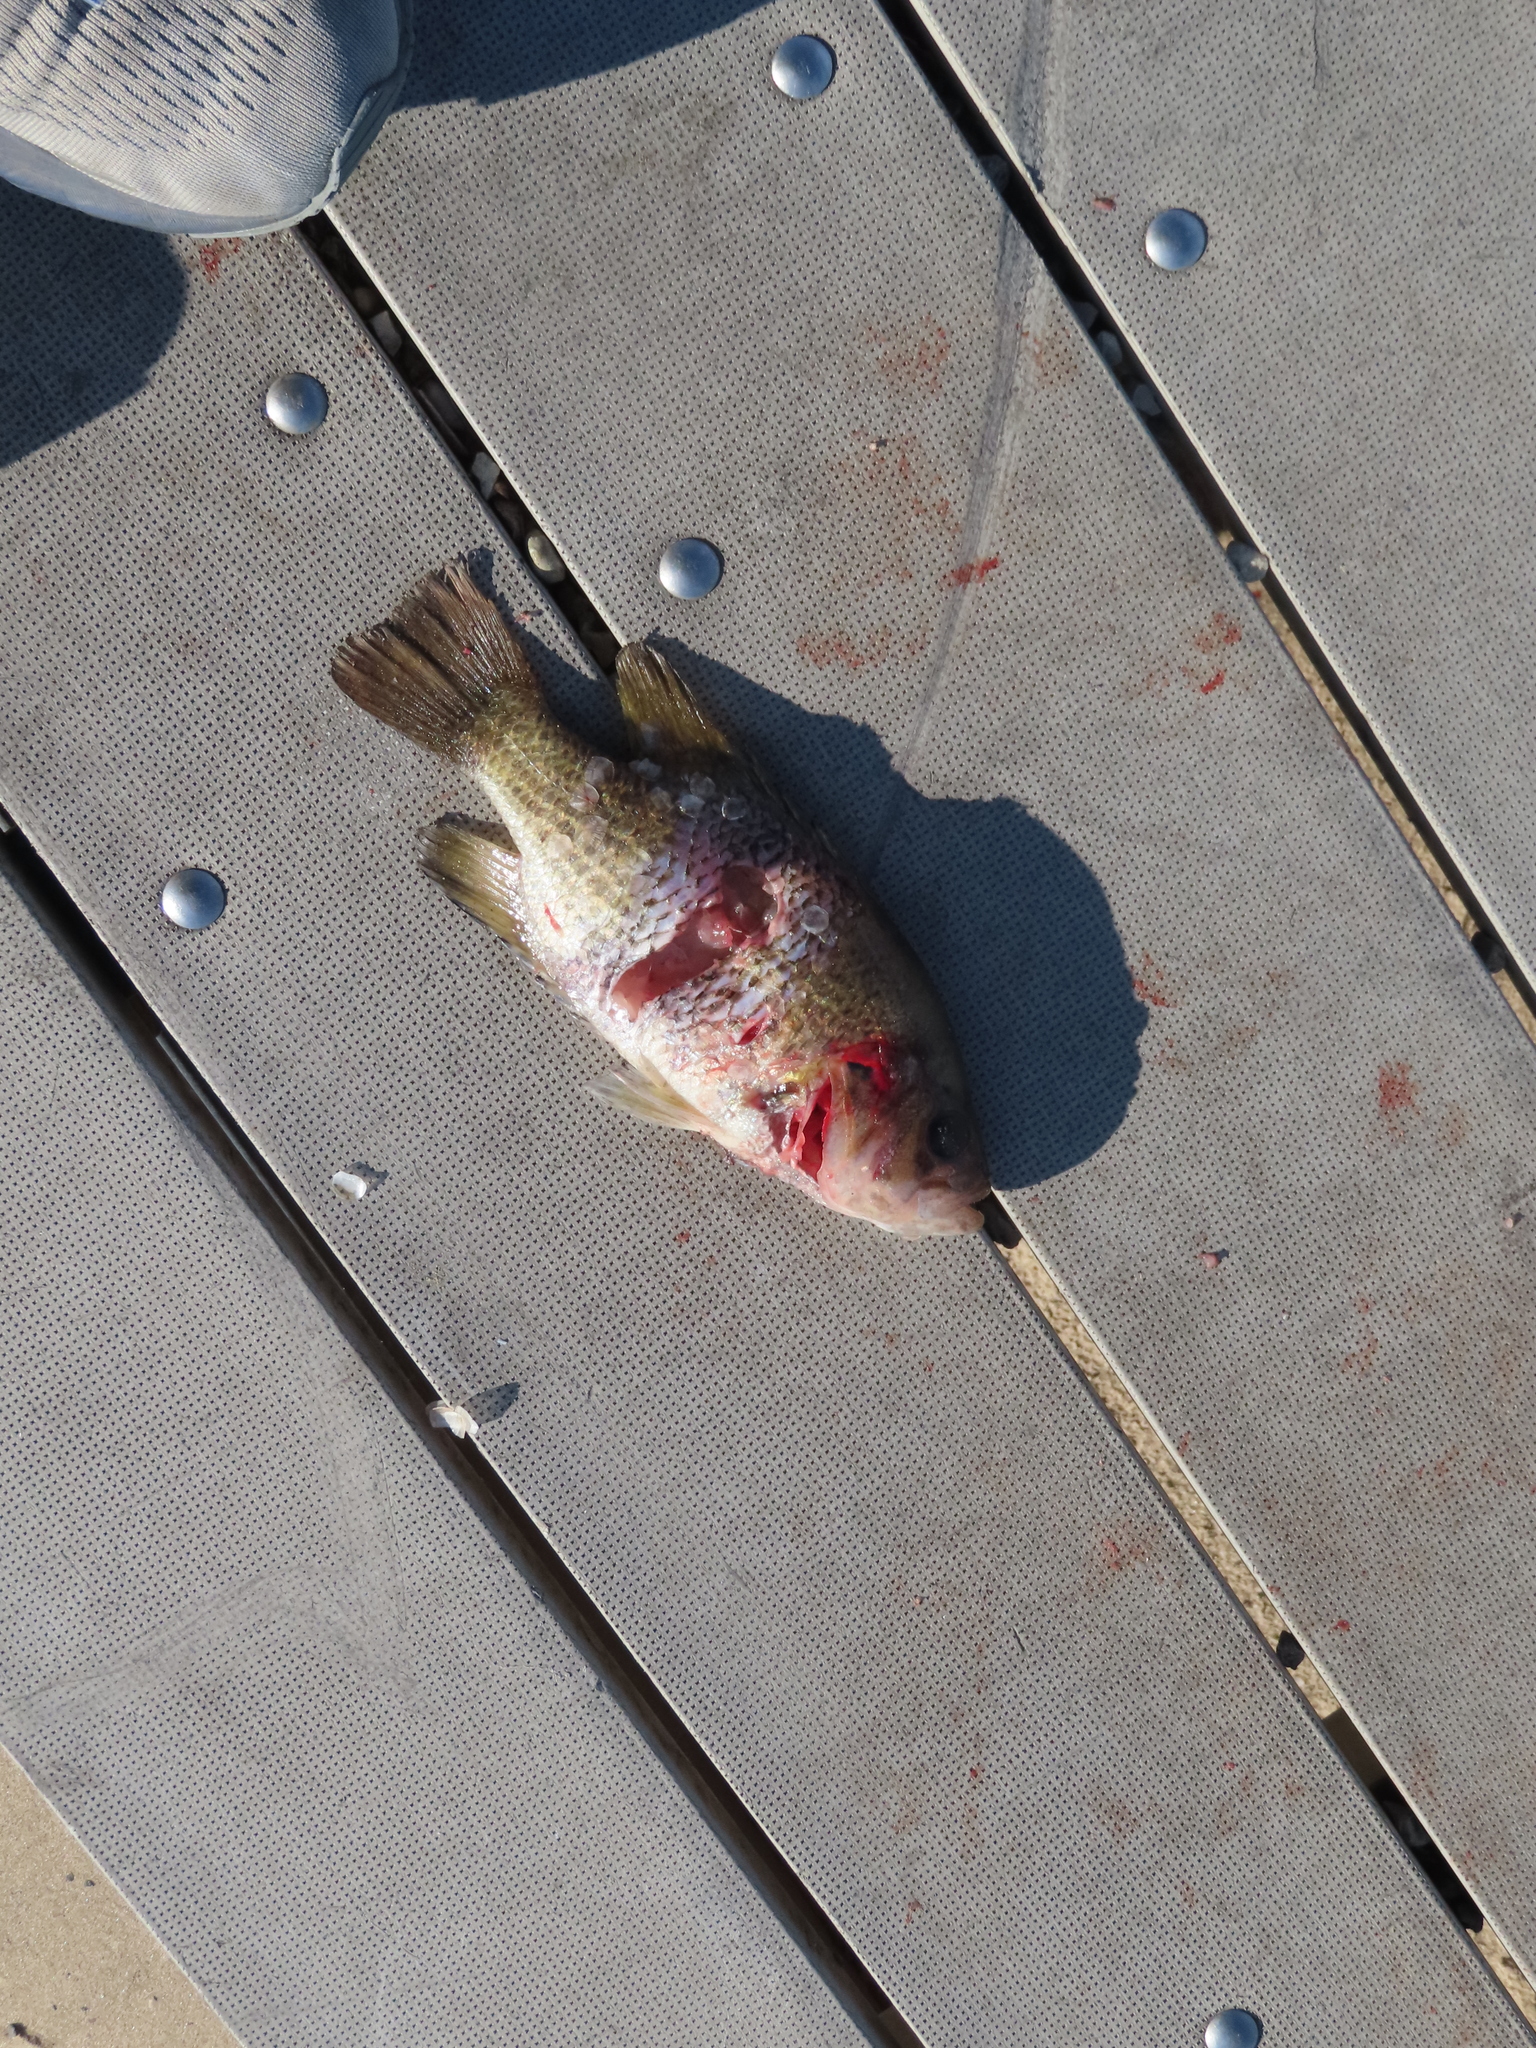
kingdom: Animalia
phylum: Chordata
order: Perciformes
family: Centrarchidae
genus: Ambloplites
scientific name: Ambloplites rupestris
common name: Rock bass
